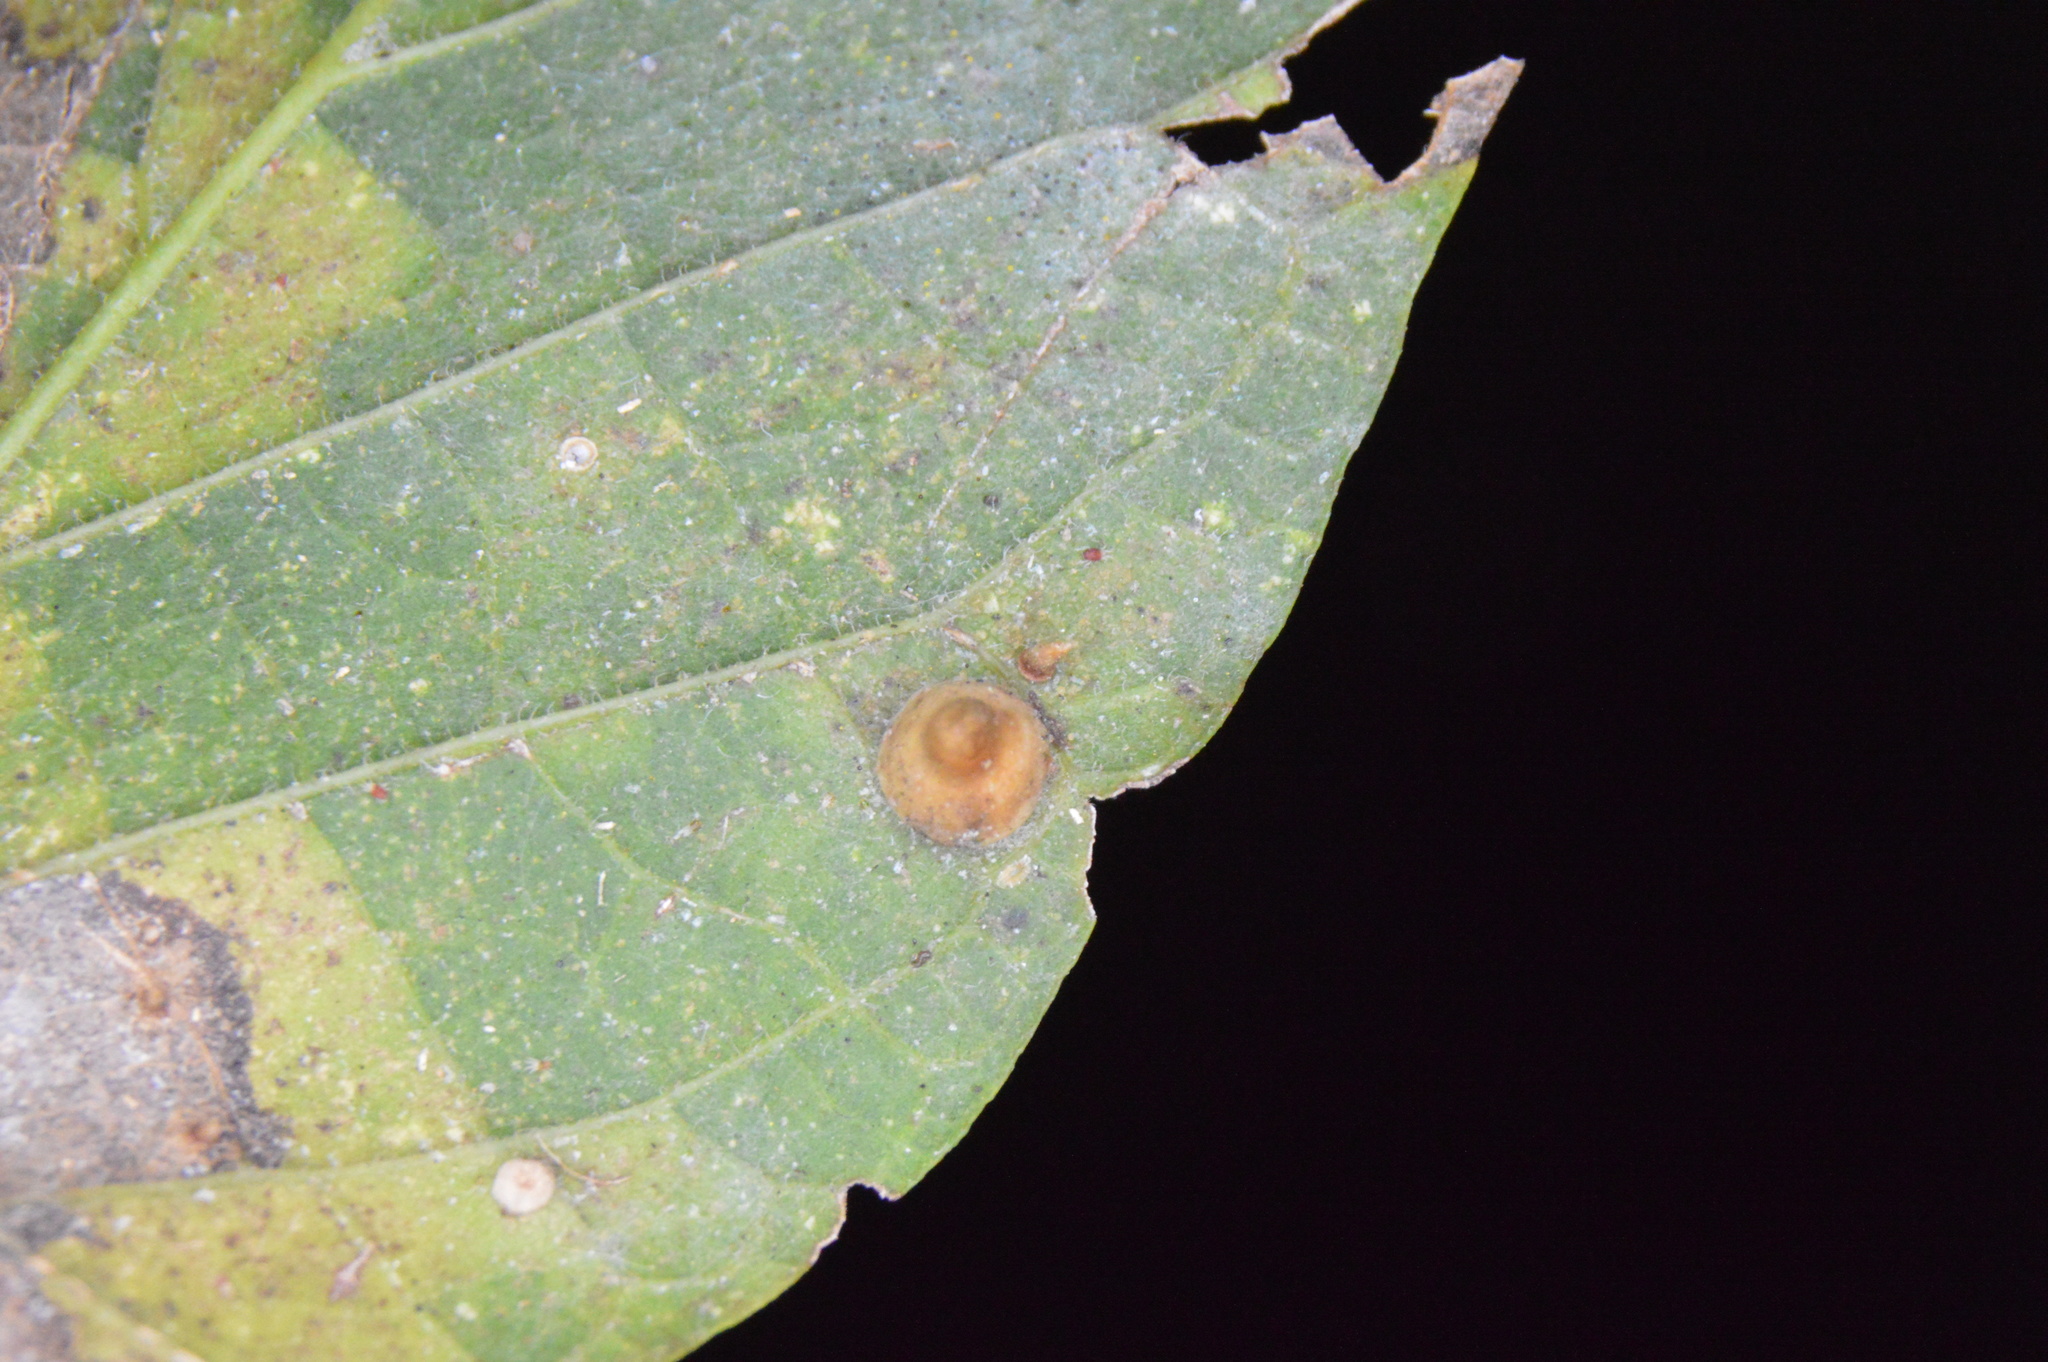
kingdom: Animalia
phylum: Arthropoda
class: Insecta
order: Diptera
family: Cecidomyiidae
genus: Celticecis
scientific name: Celticecis spiniformis
